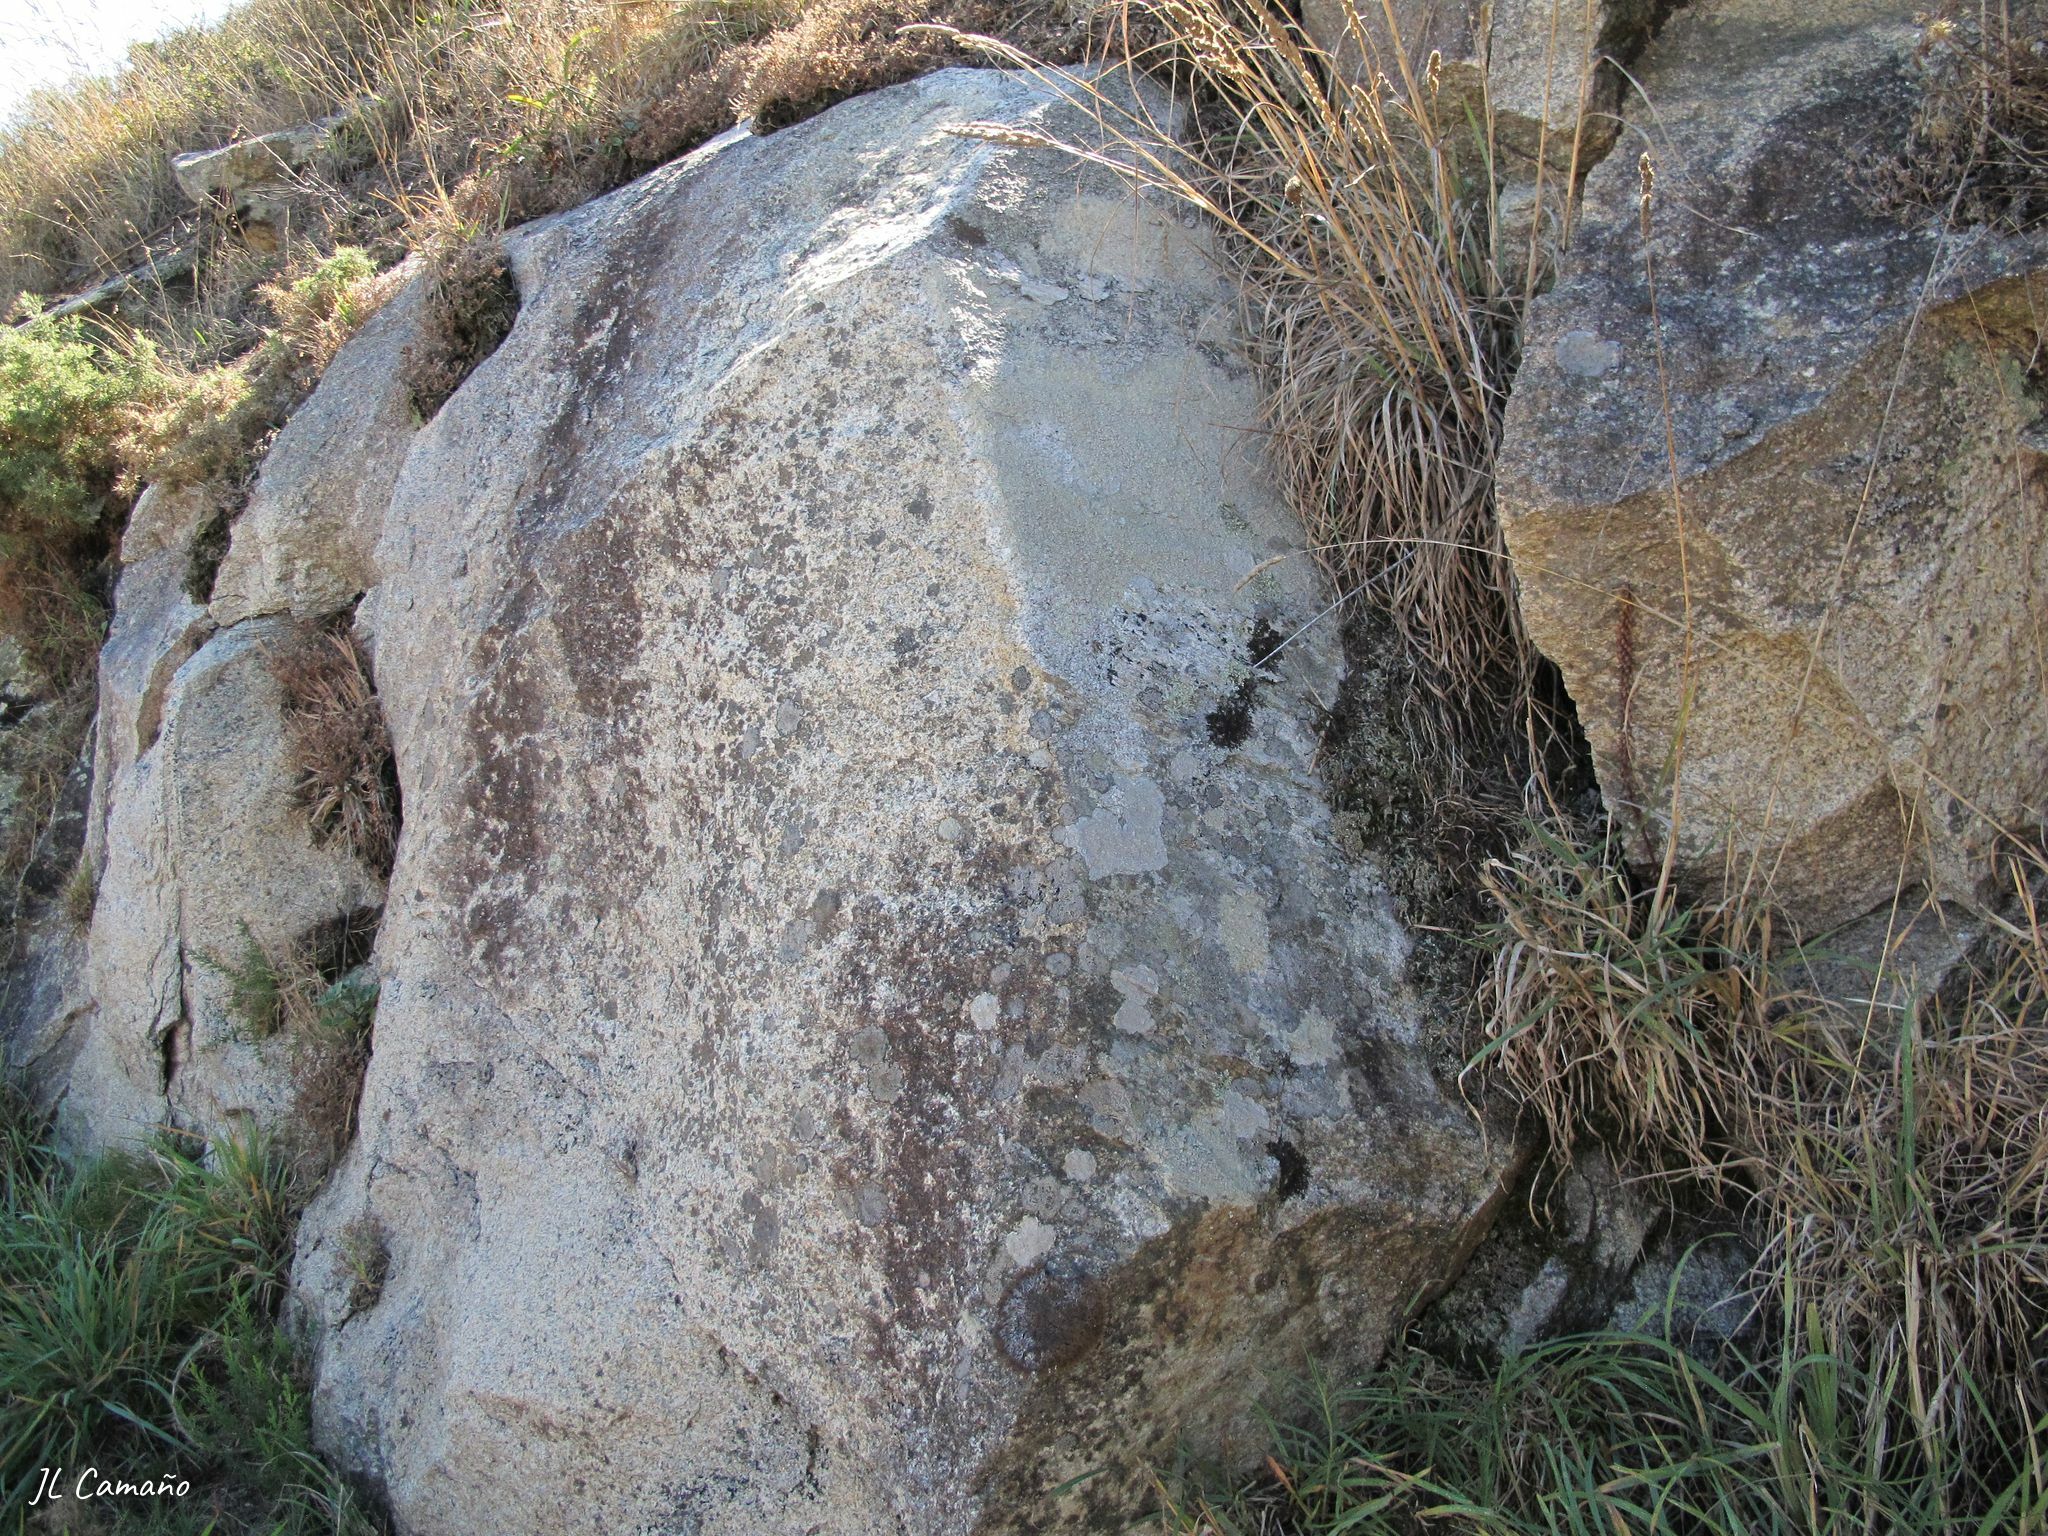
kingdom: Plantae
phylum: Marchantiophyta
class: Marchantiopsida
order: Marchantiales
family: Corsiniaceae
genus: Corsinia
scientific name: Corsinia coriandrina
